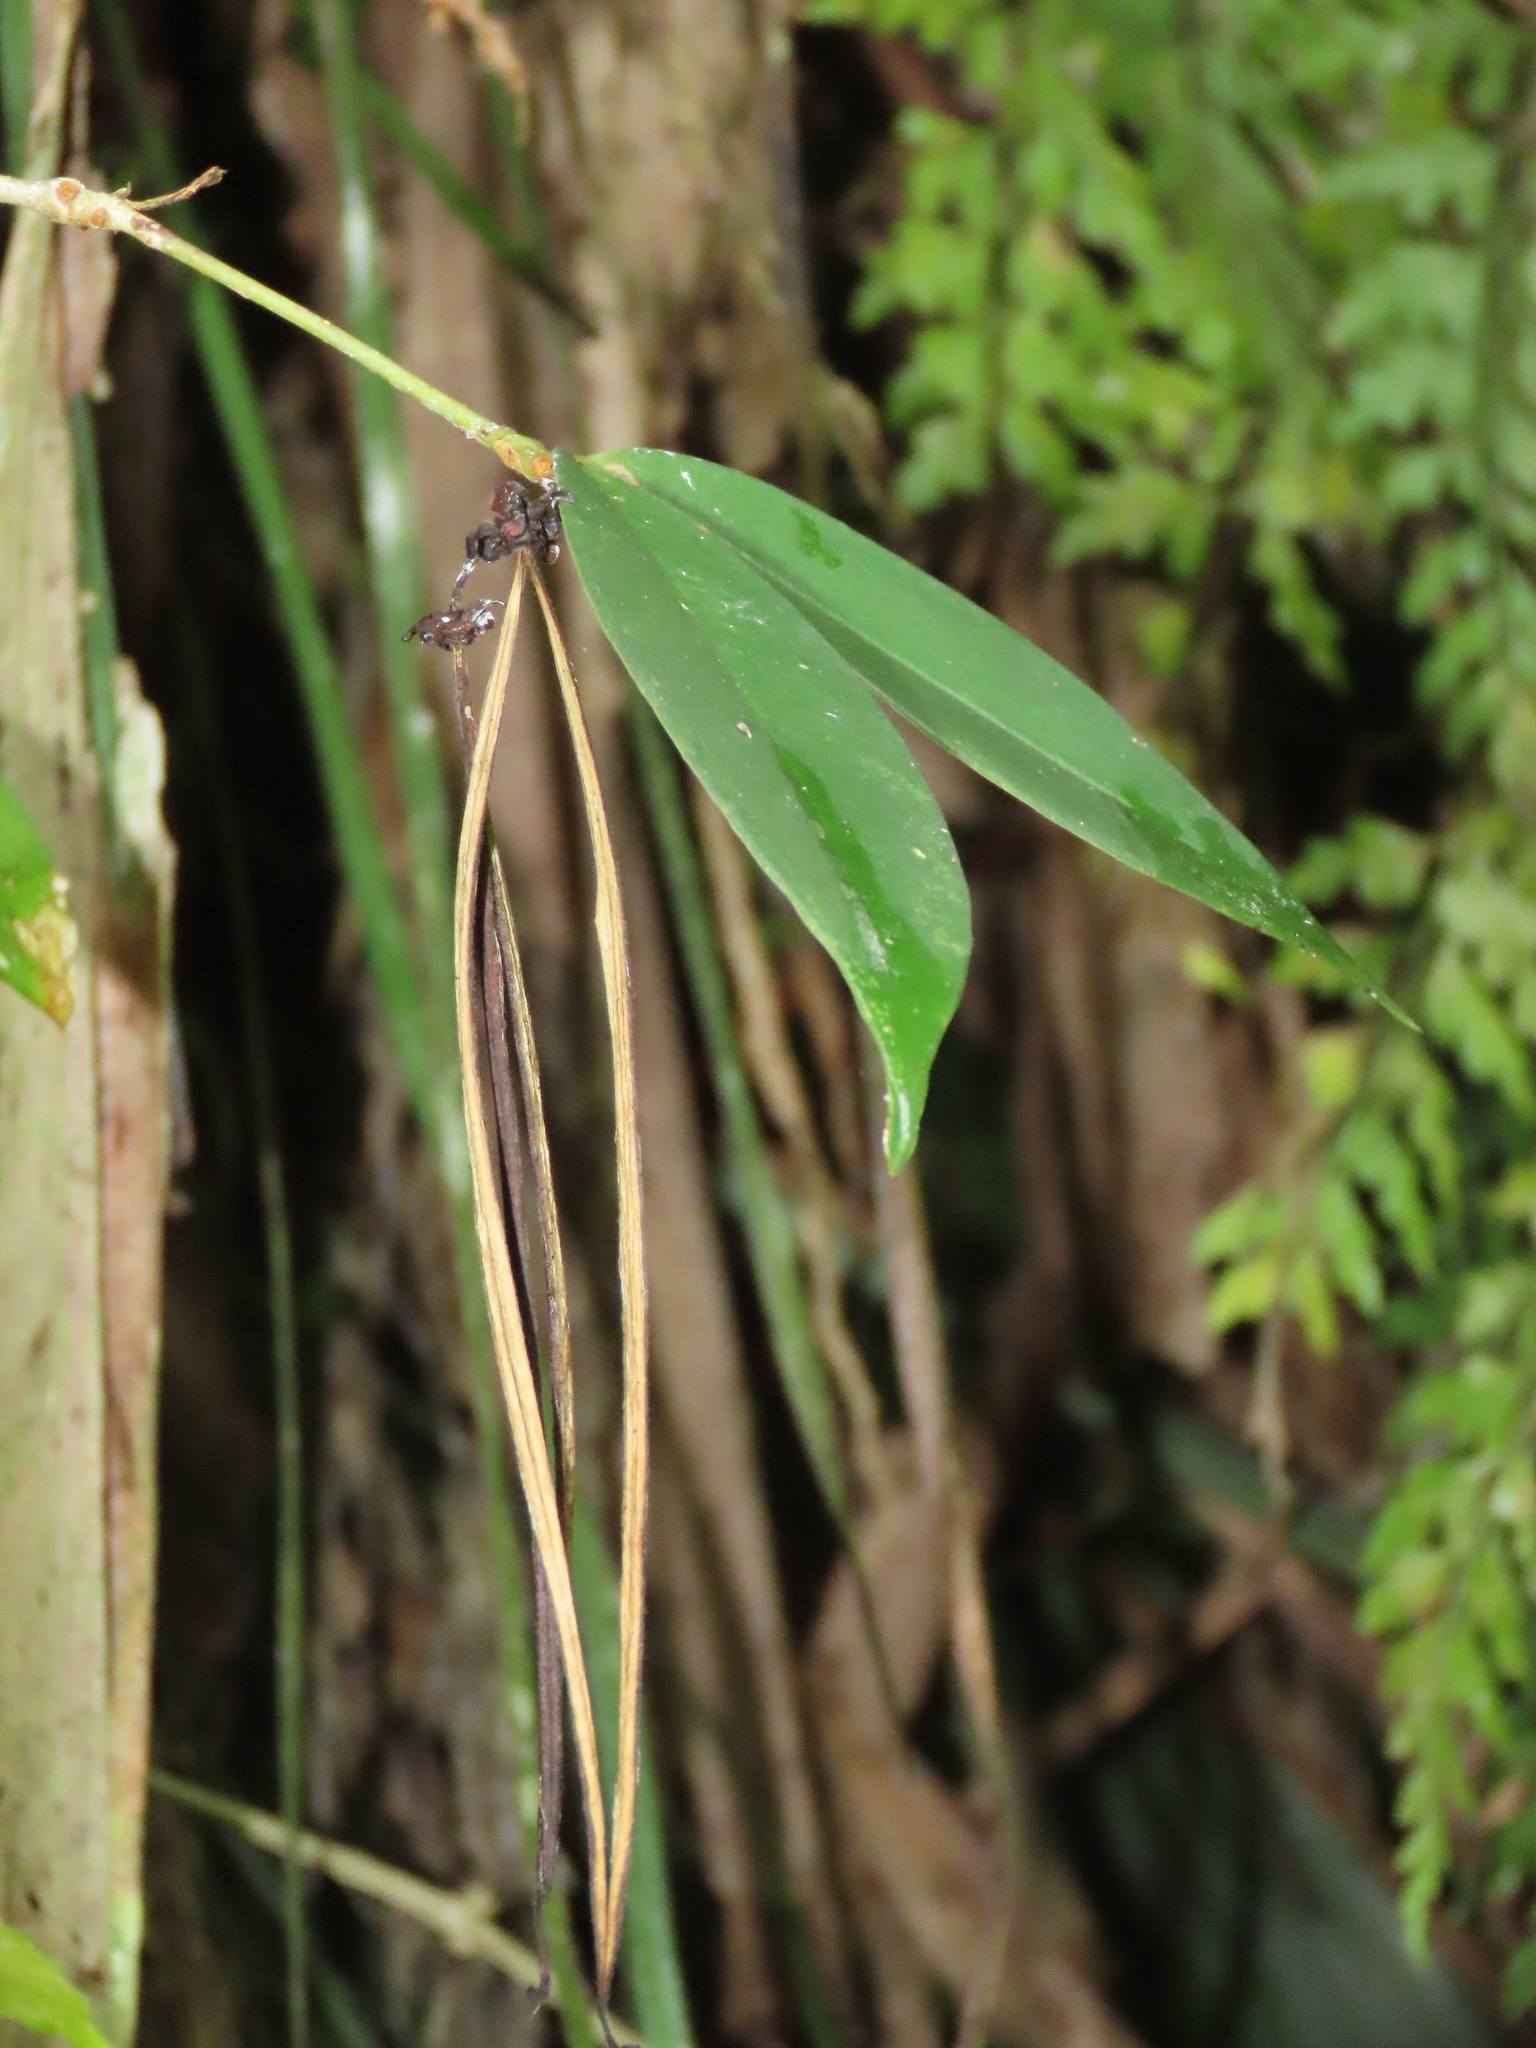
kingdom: Plantae
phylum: Tracheophyta
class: Magnoliopsida
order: Lamiales
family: Gesneriaceae
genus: Aeschynanthus
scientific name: Aeschynanthus acuminatus
